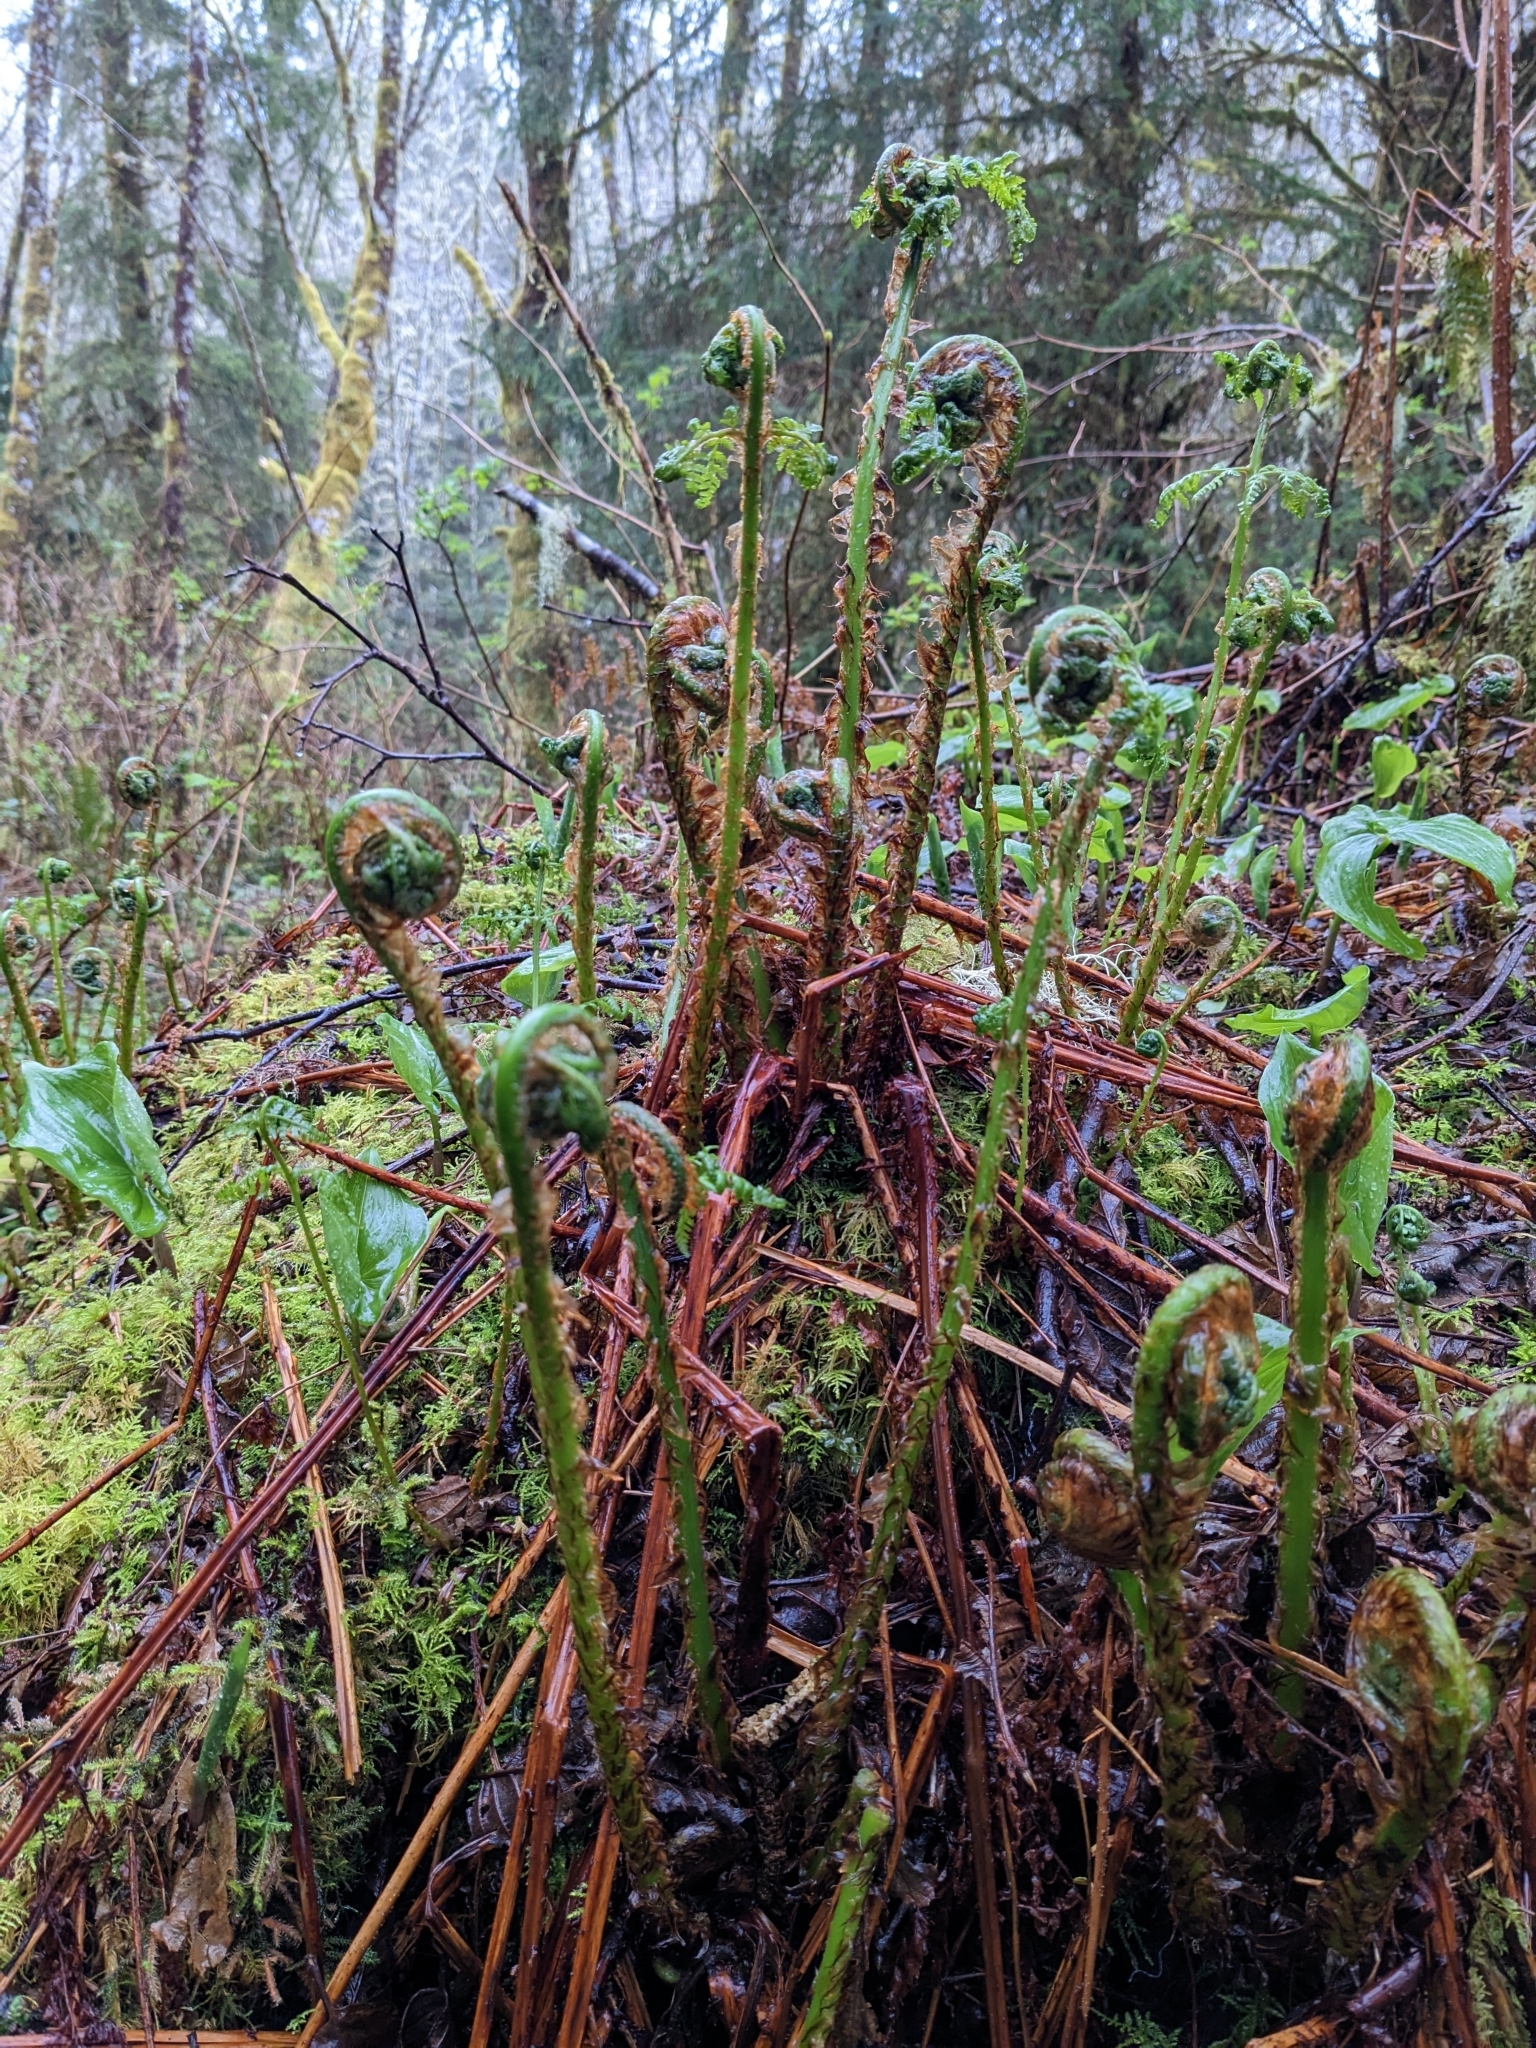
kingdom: Plantae
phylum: Tracheophyta
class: Polypodiopsida
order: Polypodiales
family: Dryopteridaceae
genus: Dryopteris
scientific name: Dryopteris expansa
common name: Northern buckler fern
